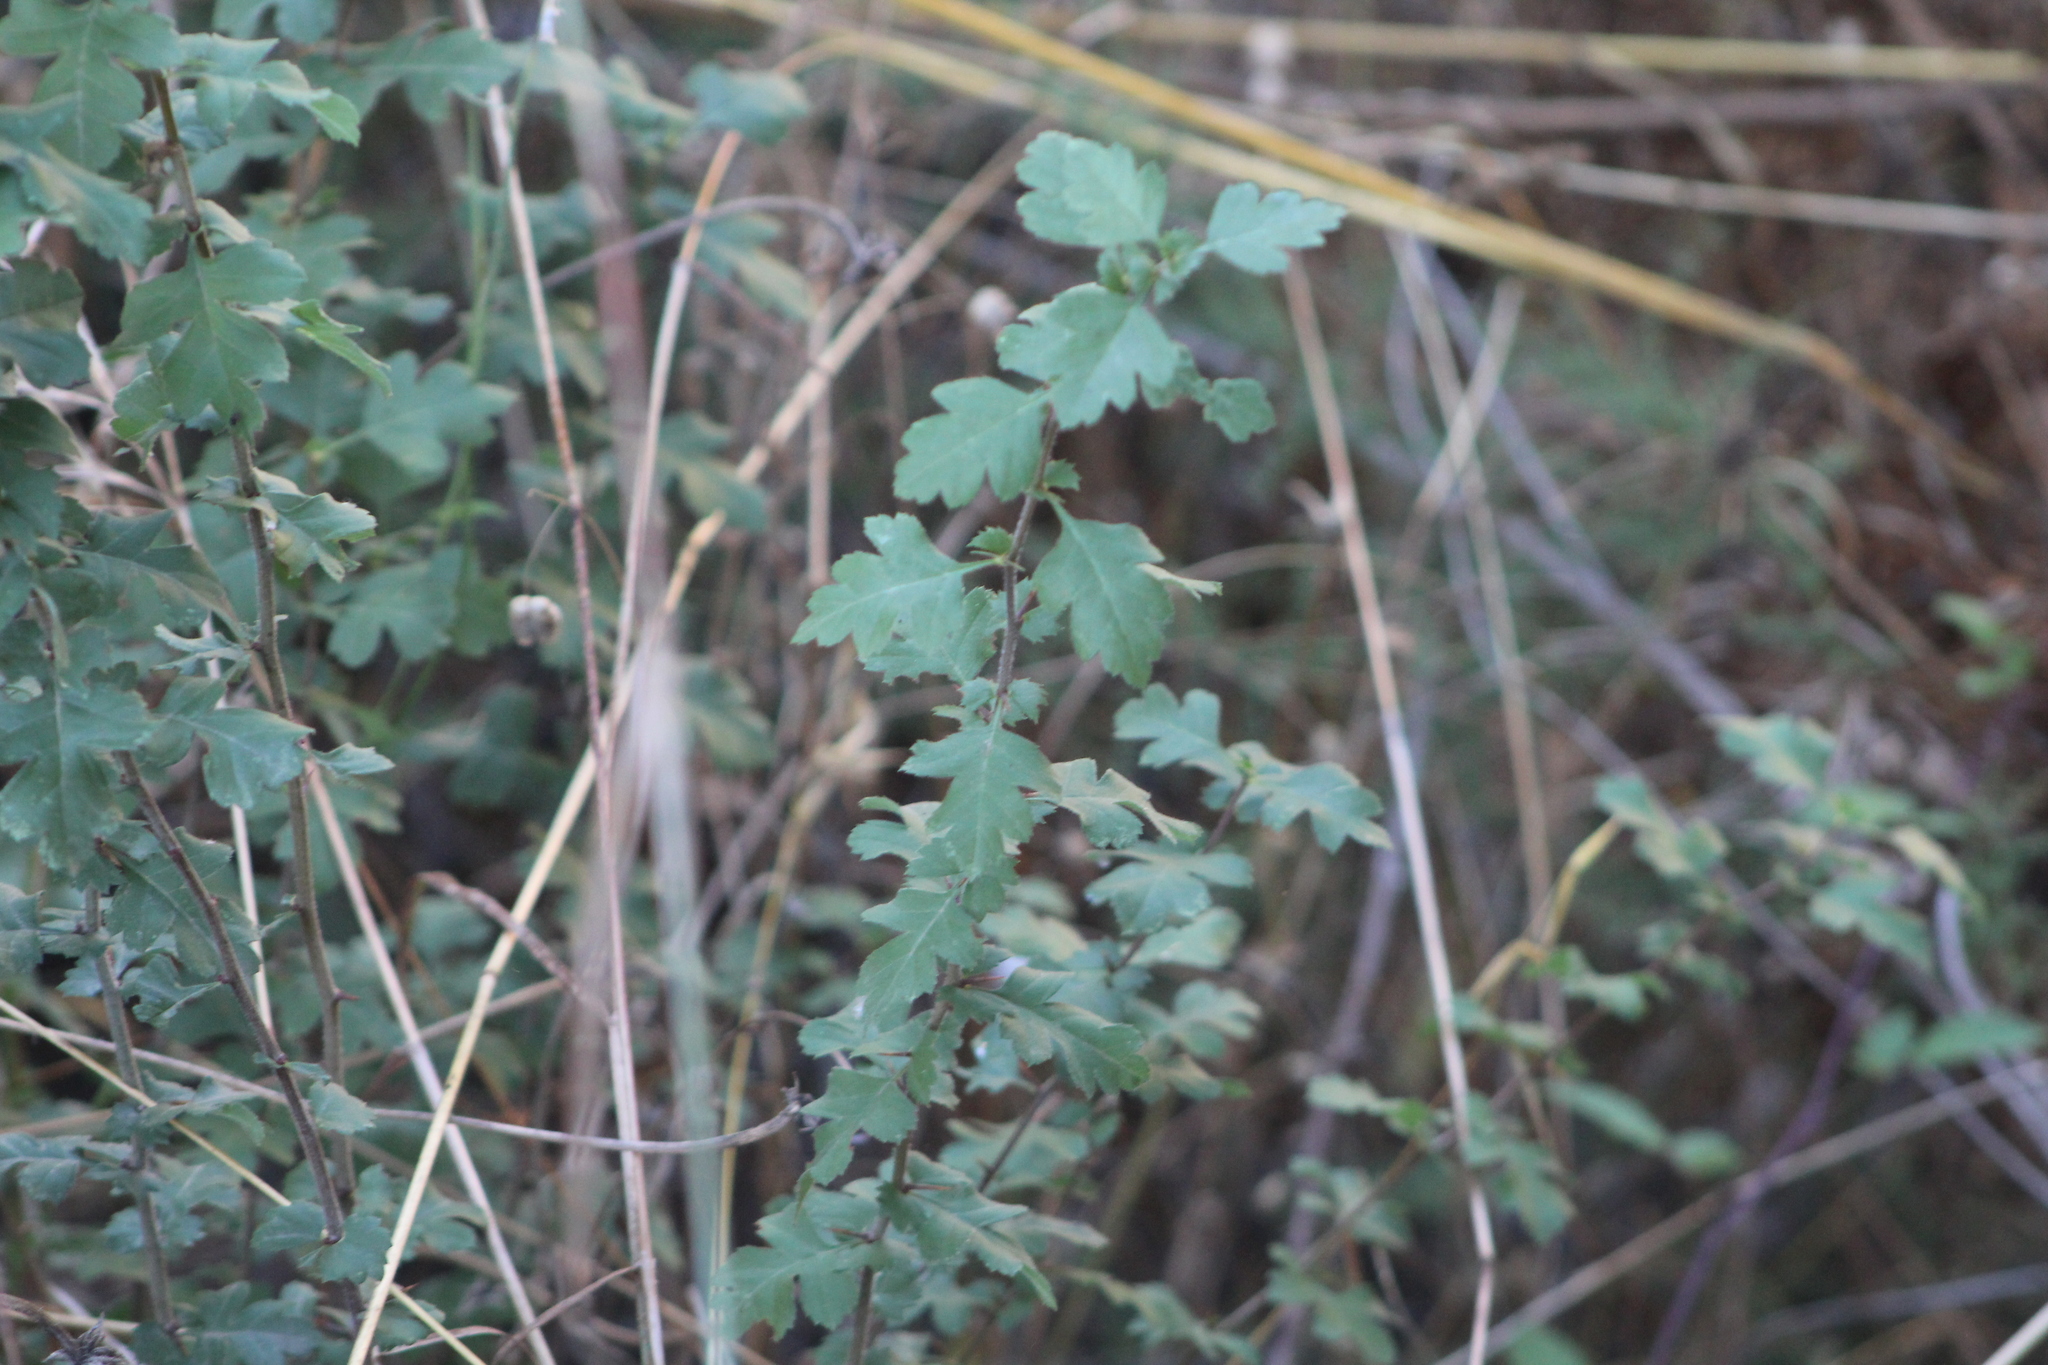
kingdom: Plantae
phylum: Tracheophyta
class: Magnoliopsida
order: Rosales
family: Rosaceae
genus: Crataegus
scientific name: Crataegus monogyna
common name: Hawthorn
